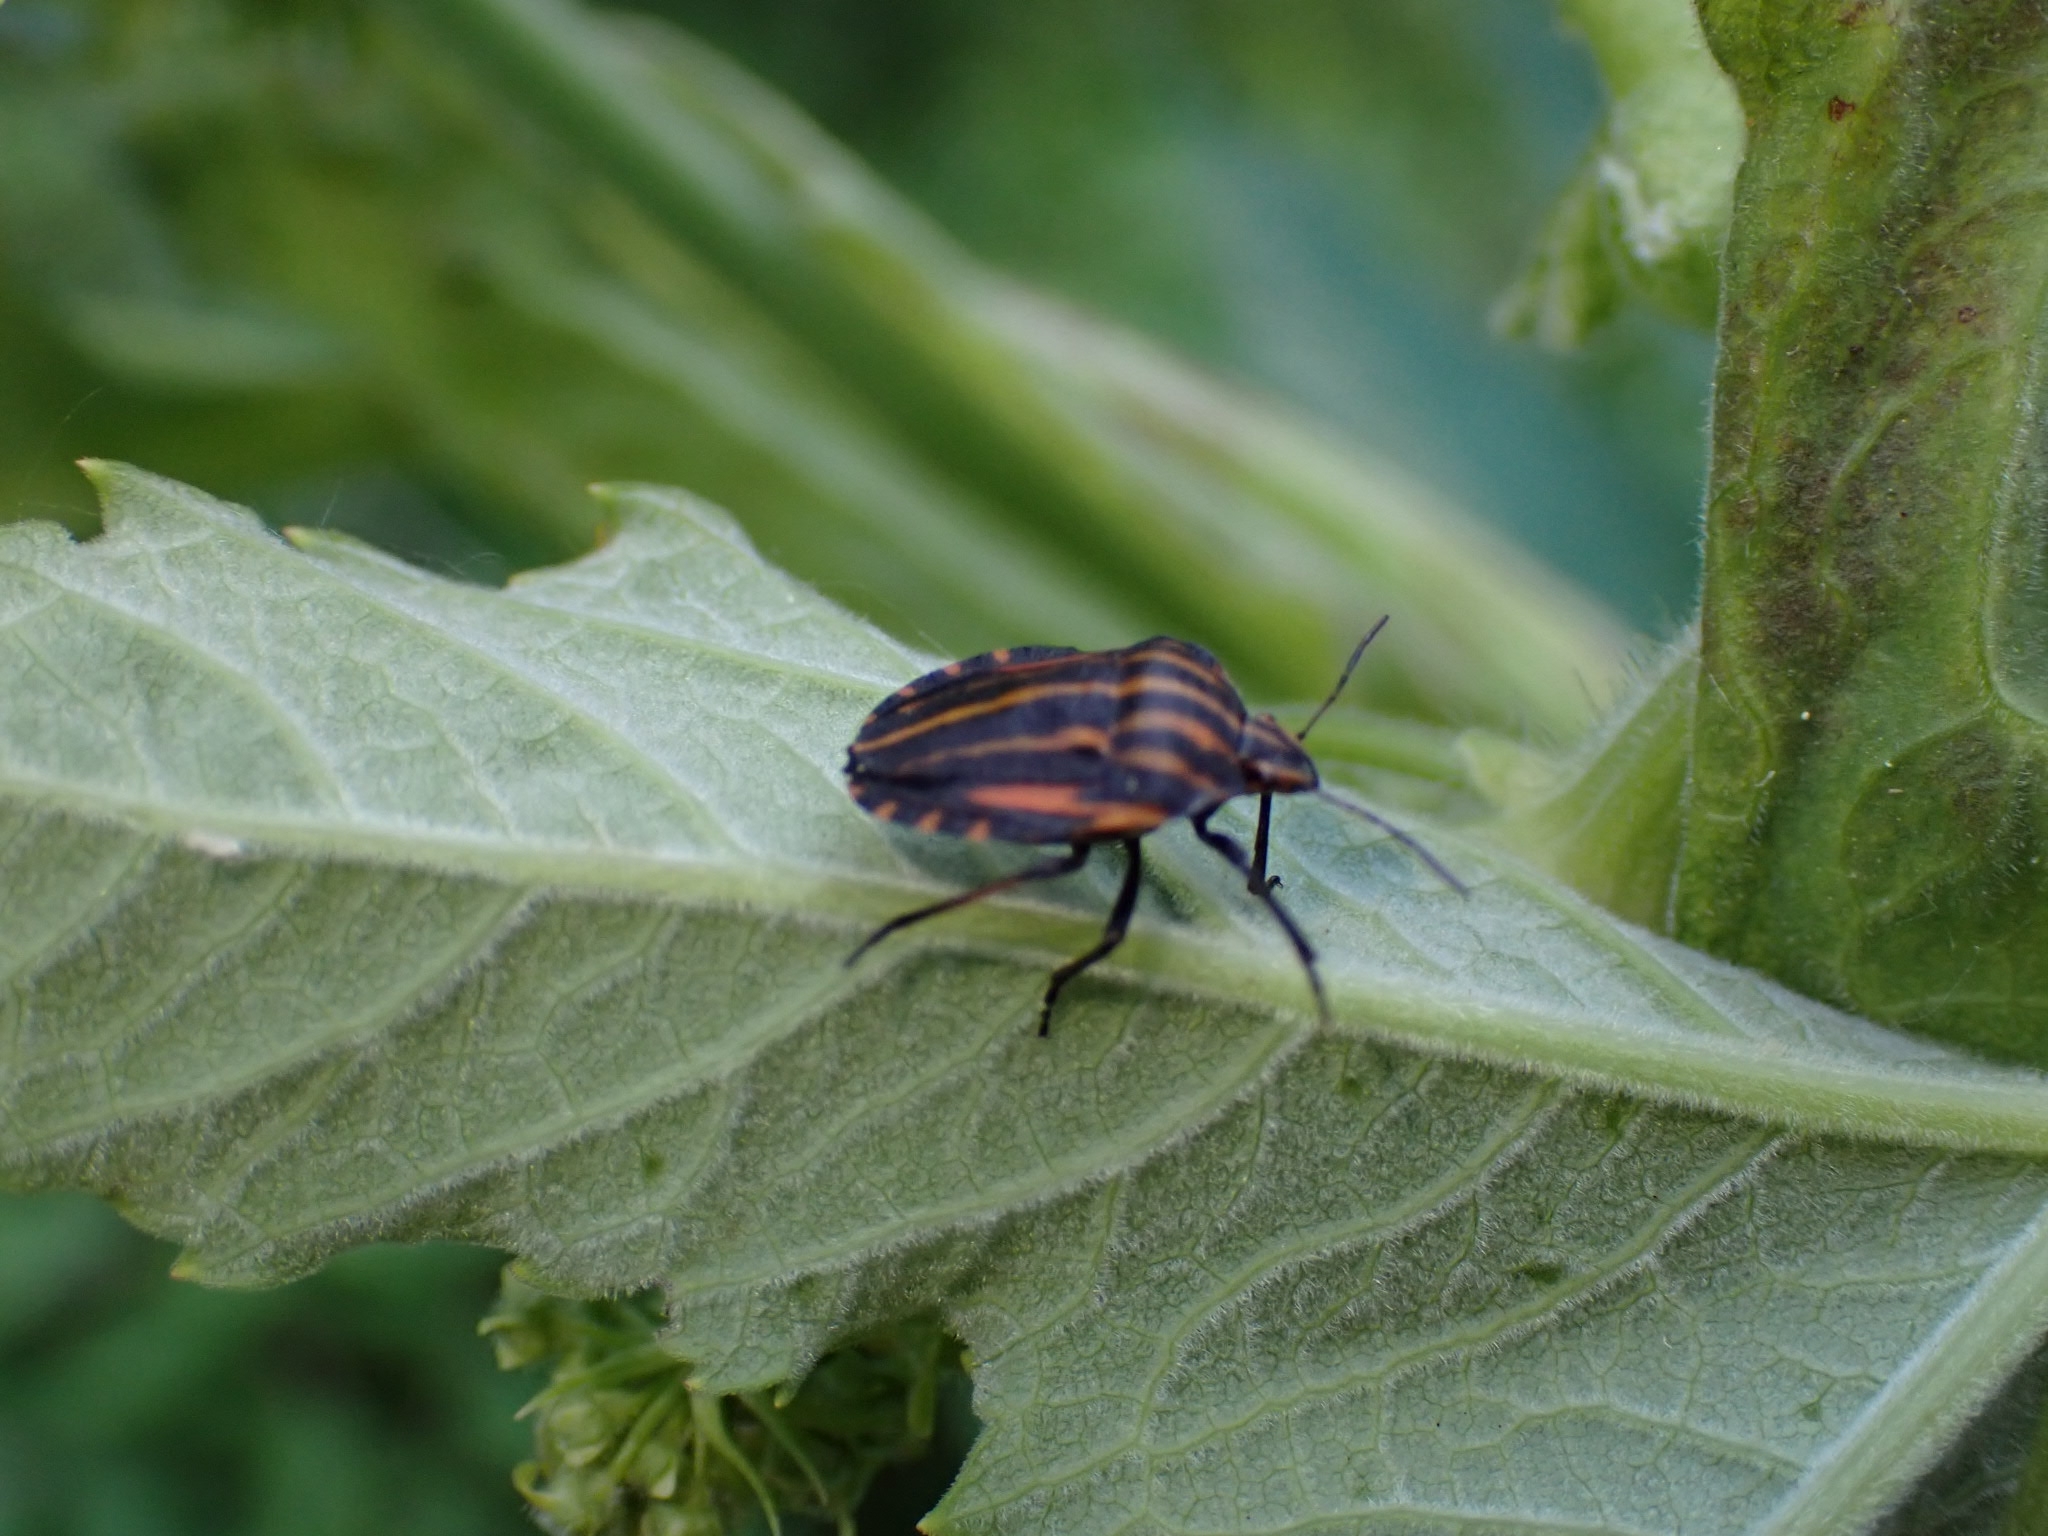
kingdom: Animalia
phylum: Arthropoda
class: Insecta
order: Hemiptera
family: Pentatomidae
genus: Graphosoma
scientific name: Graphosoma italicum
